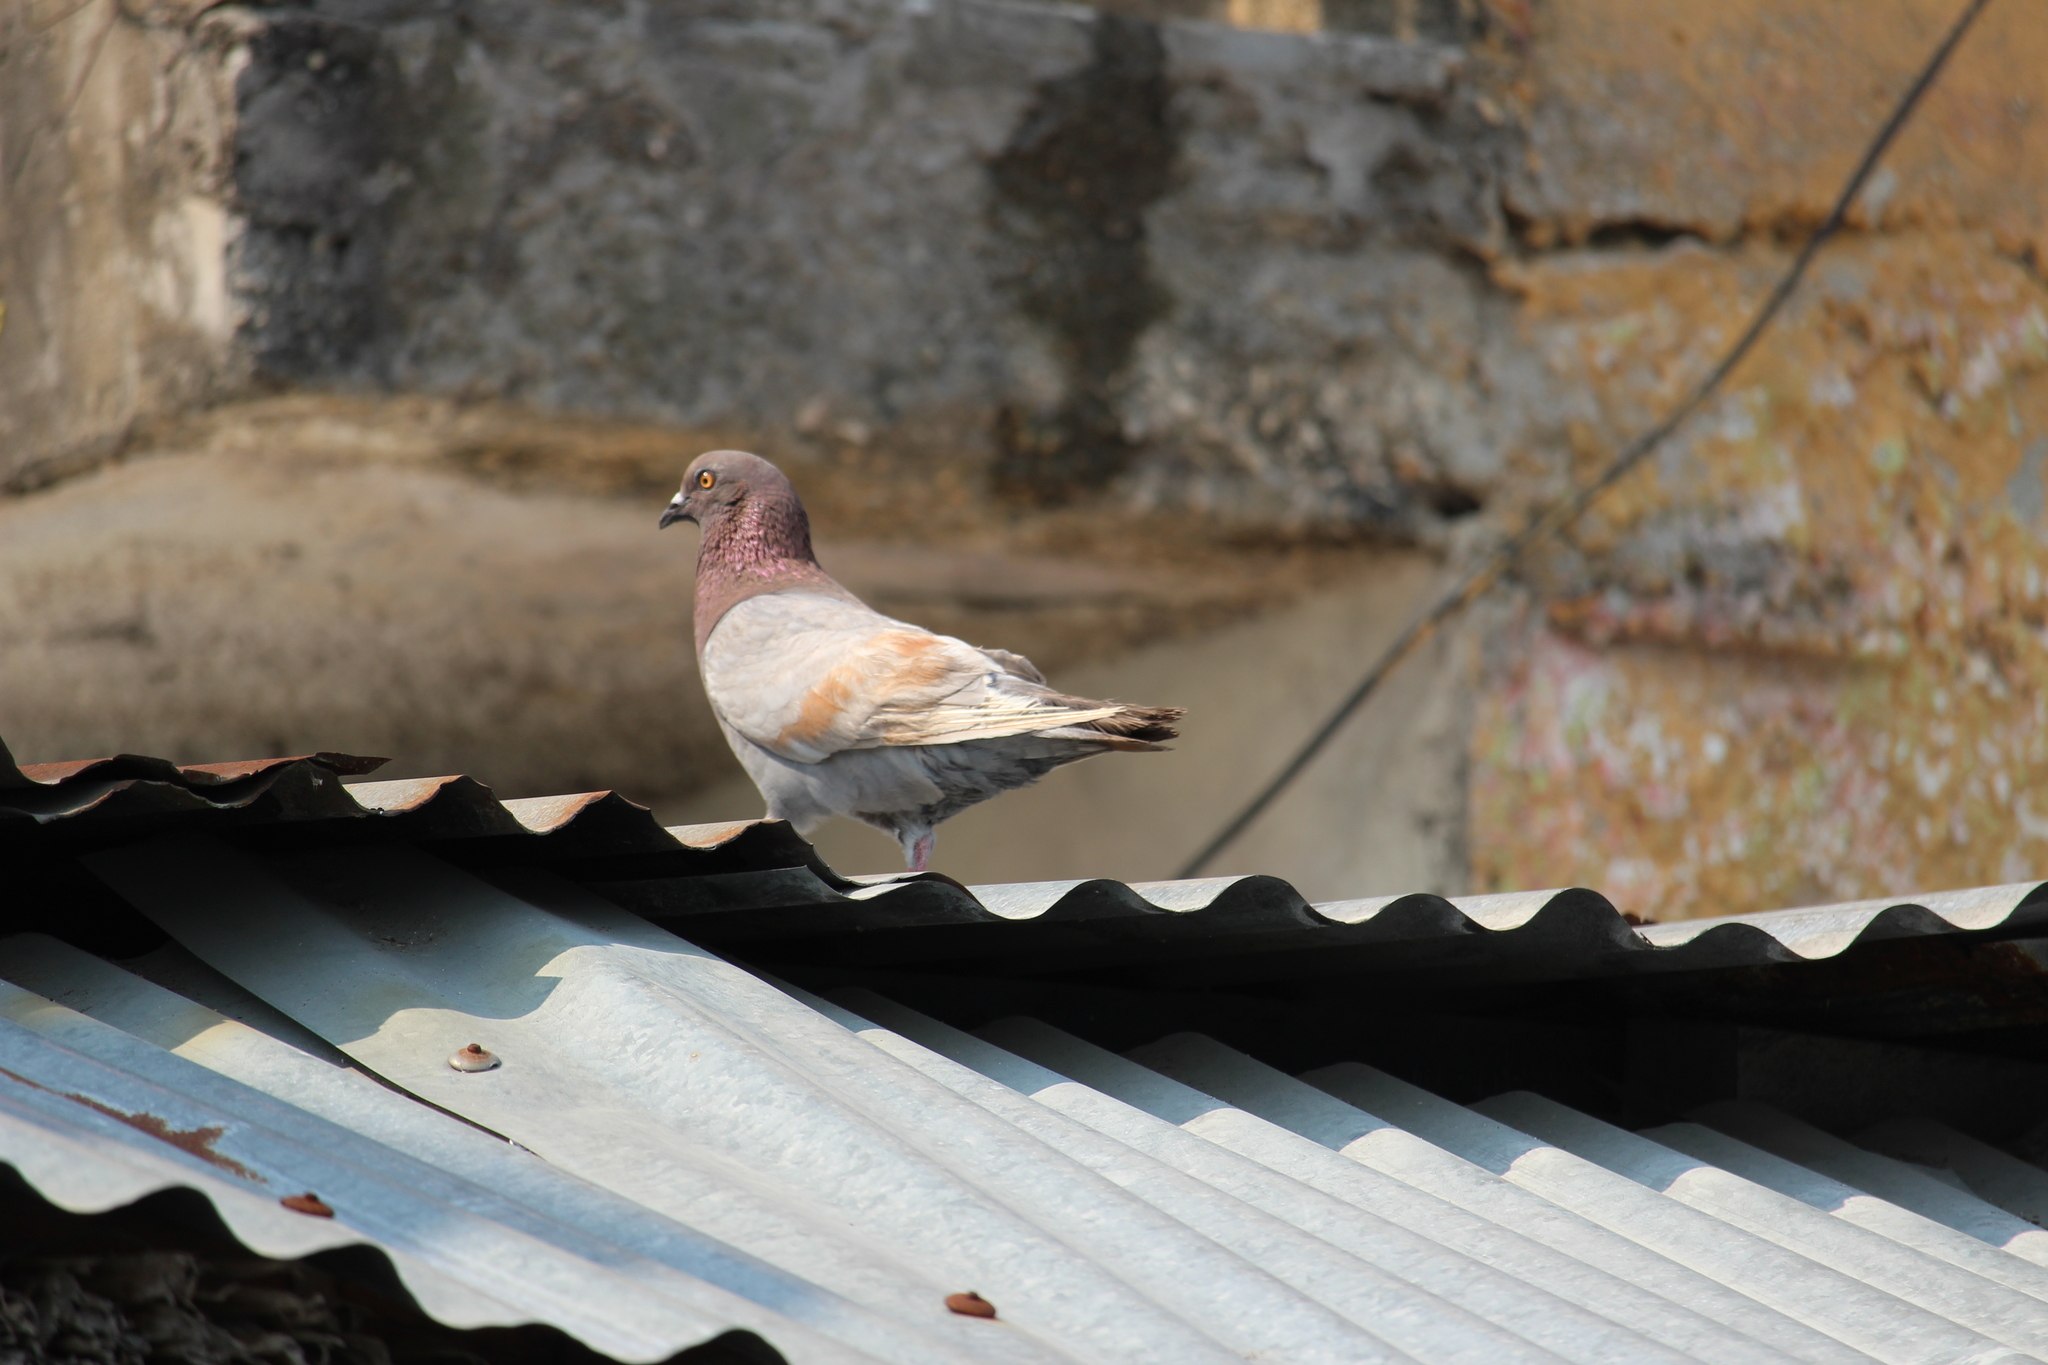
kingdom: Animalia
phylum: Chordata
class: Aves
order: Columbiformes
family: Columbidae
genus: Columba
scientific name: Columba livia
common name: Rock pigeon
